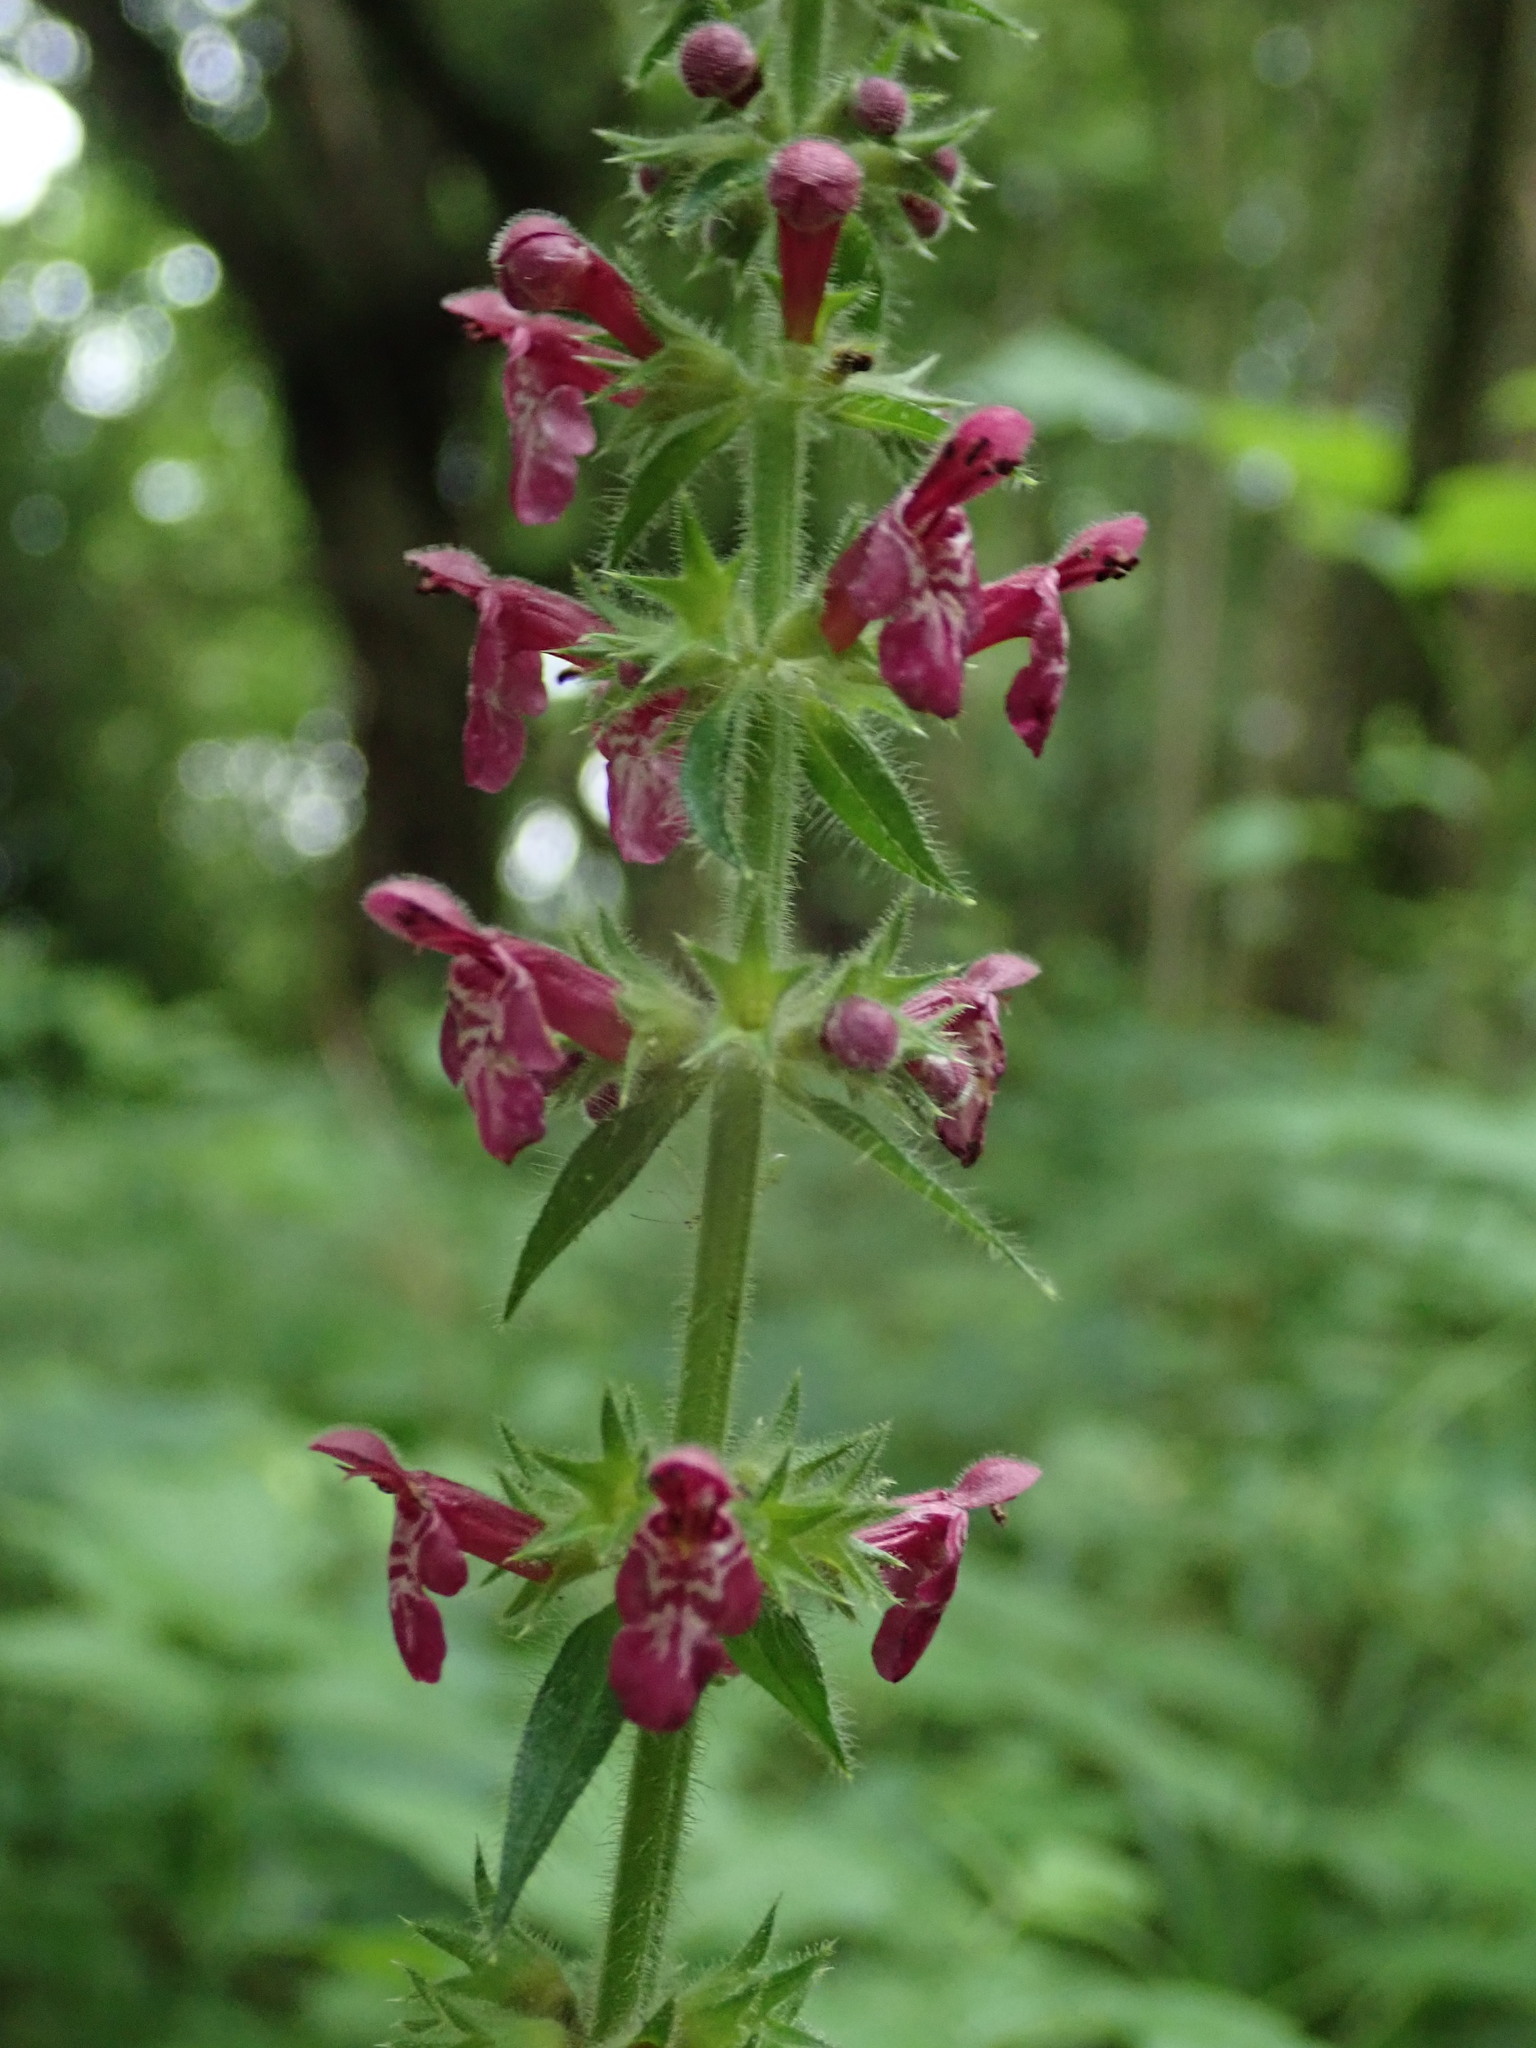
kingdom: Plantae
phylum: Tracheophyta
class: Magnoliopsida
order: Lamiales
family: Lamiaceae
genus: Stachys
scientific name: Stachys sylvatica
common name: Hedge woundwort
